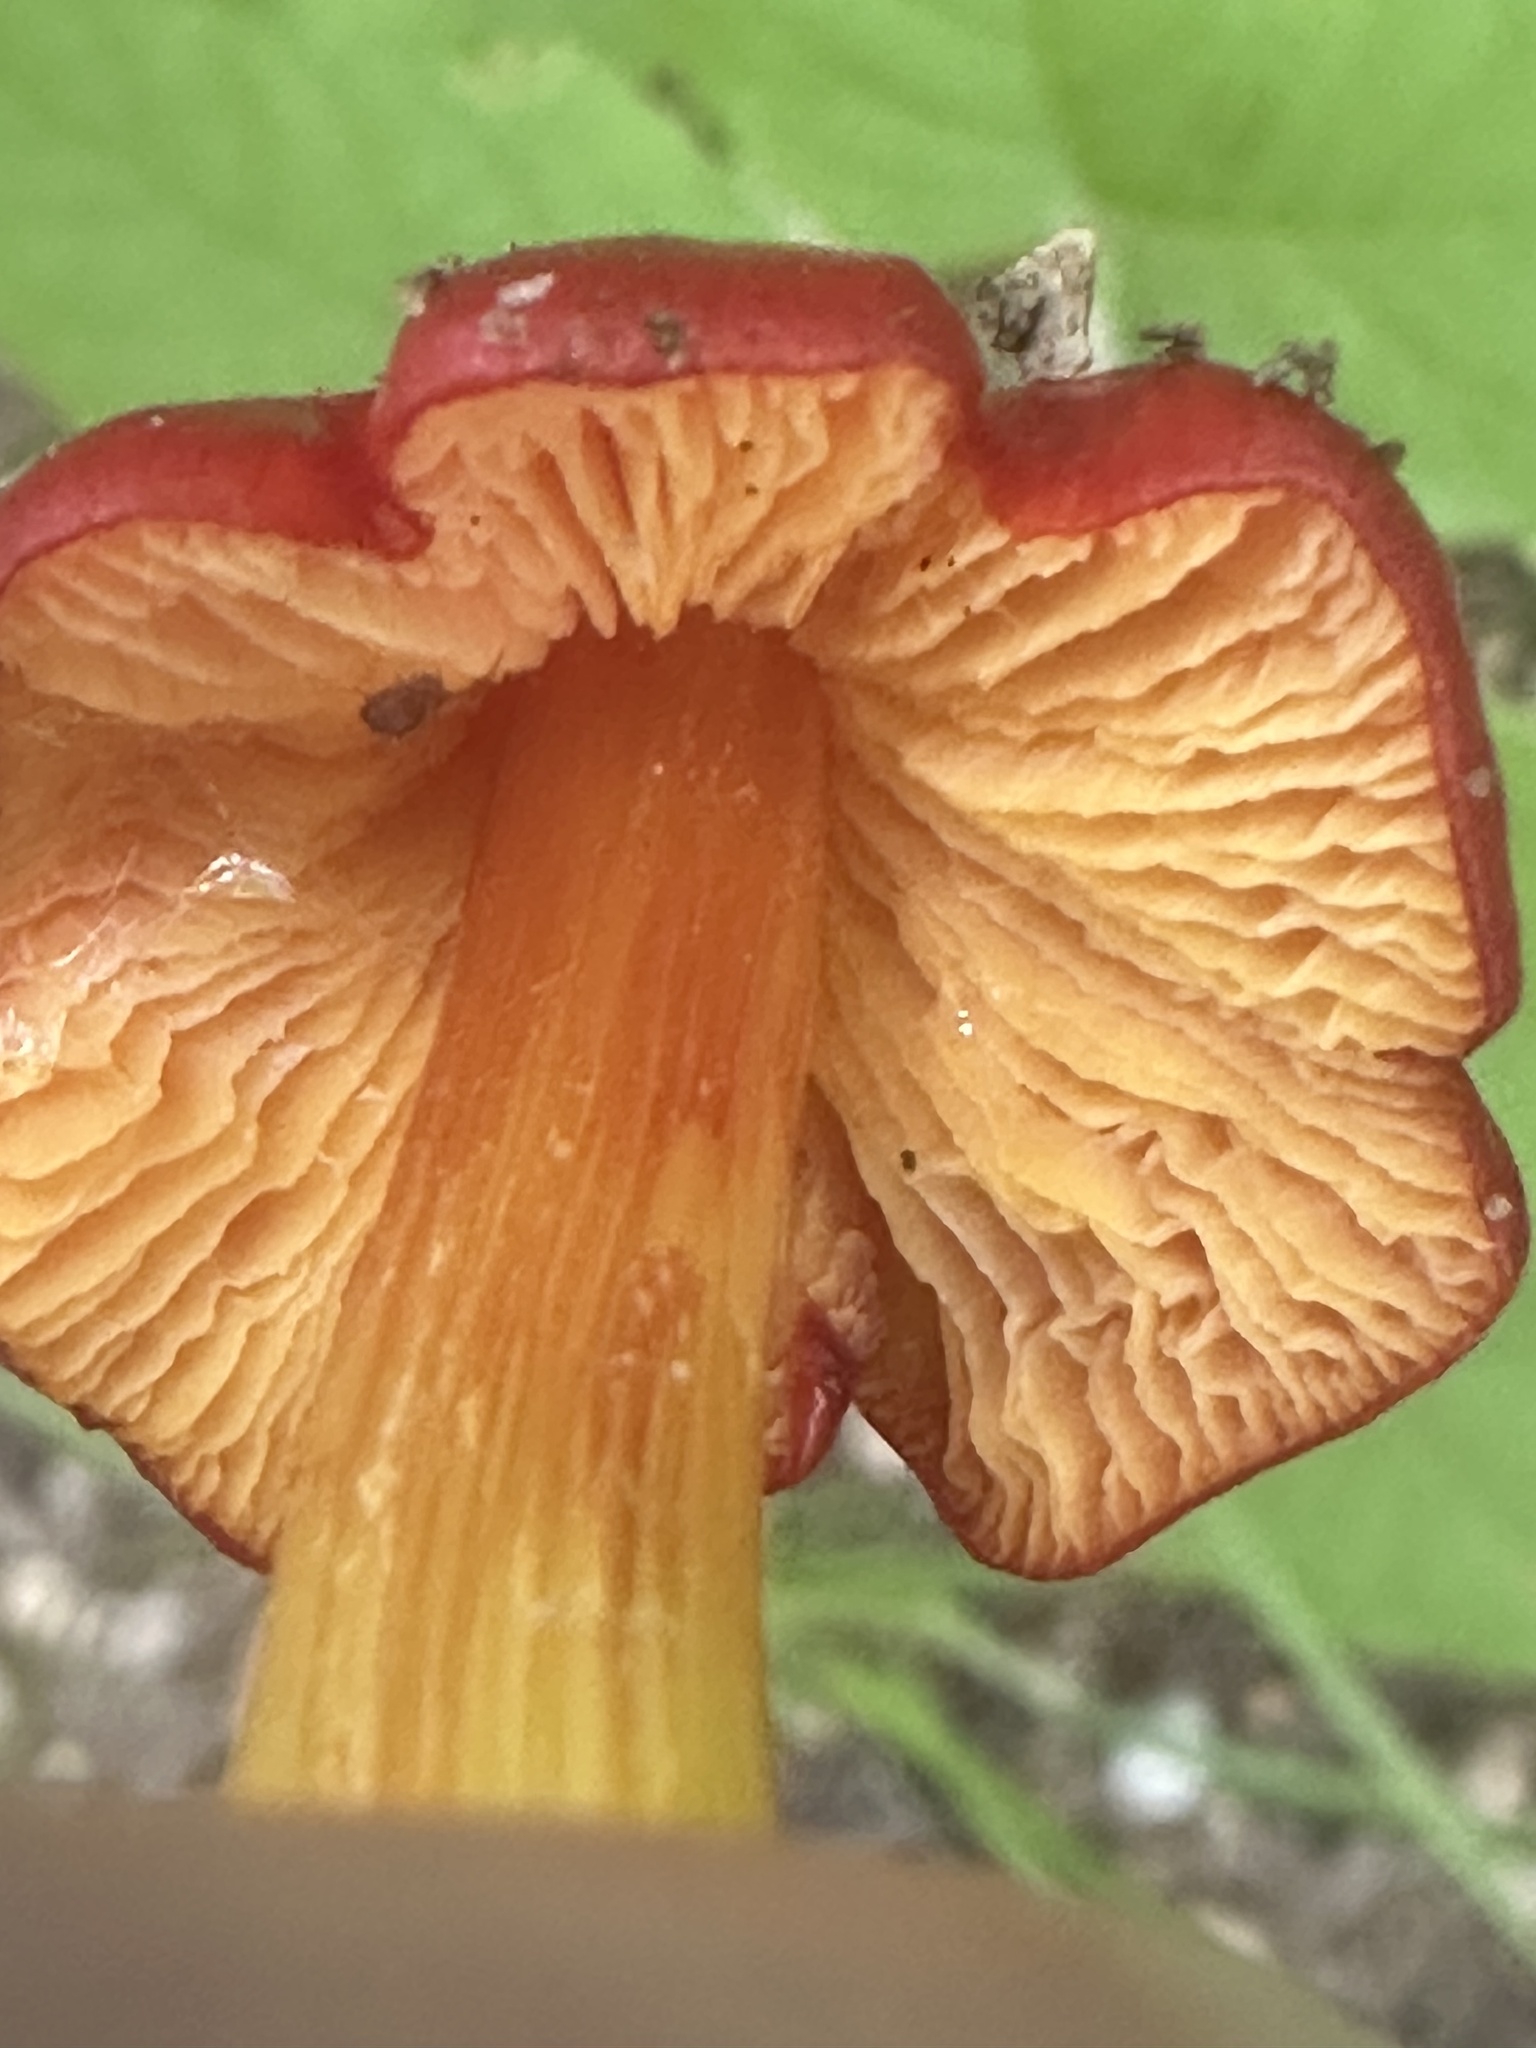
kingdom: Fungi
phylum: Basidiomycota
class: Agaricomycetes
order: Agaricales
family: Hygrophoraceae
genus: Hygrocybe
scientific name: Hygrocybe cuspidata
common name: Candy apple waxy cap
